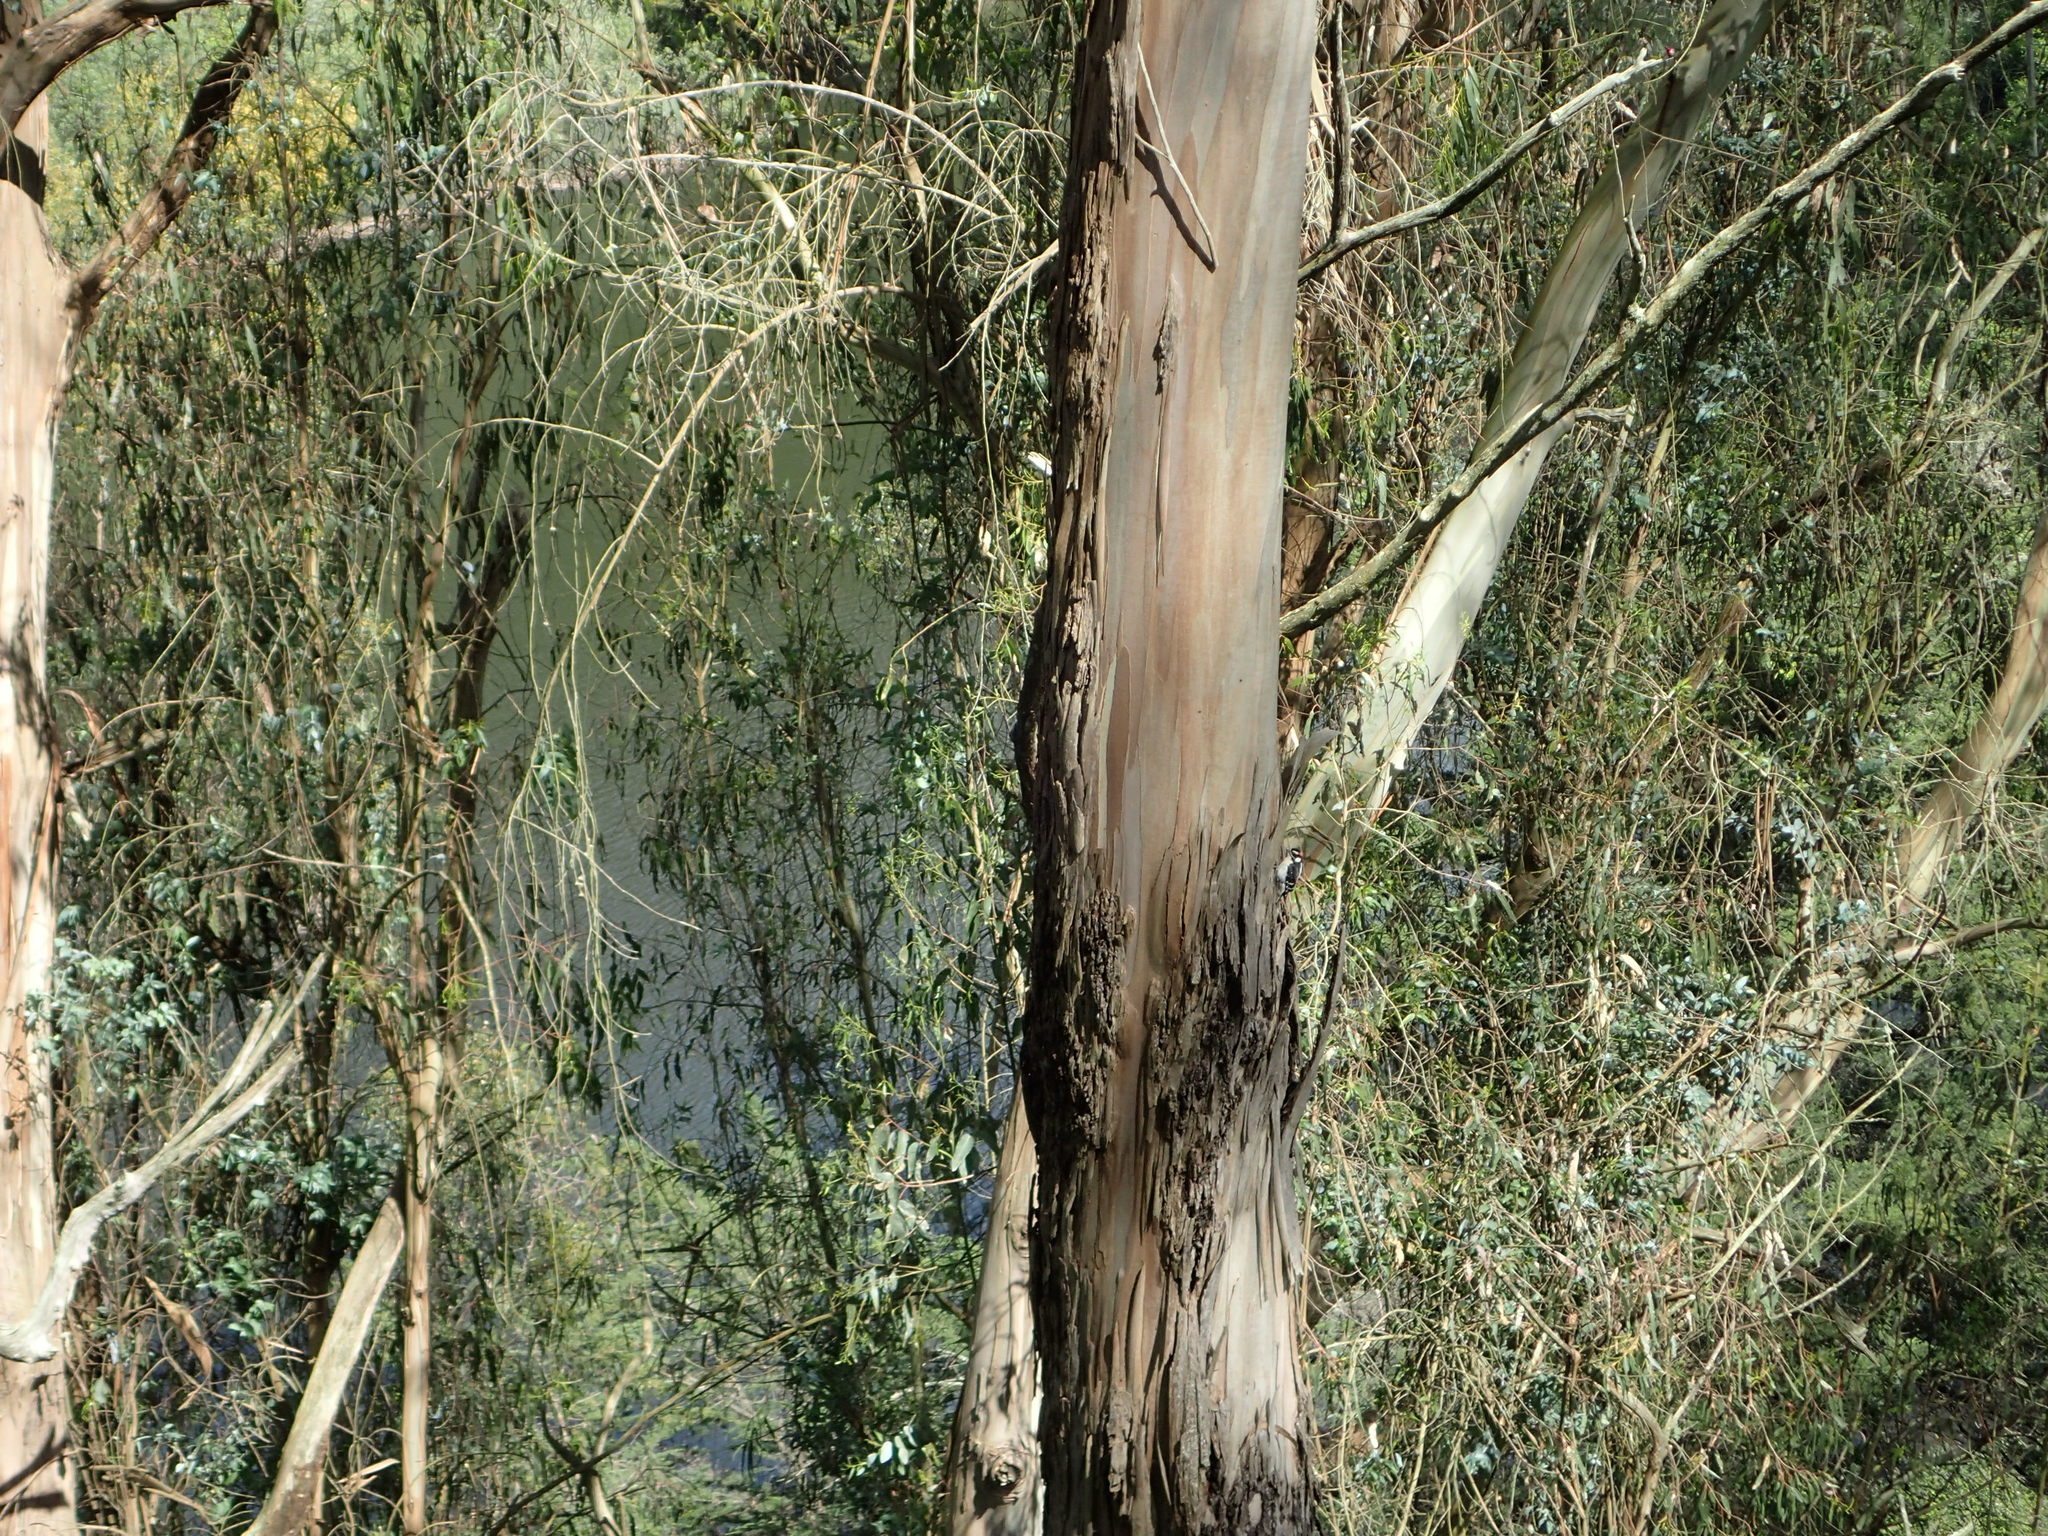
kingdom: Animalia
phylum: Chordata
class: Aves
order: Piciformes
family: Picidae
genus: Dryobates
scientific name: Dryobates pubescens
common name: Downy woodpecker
